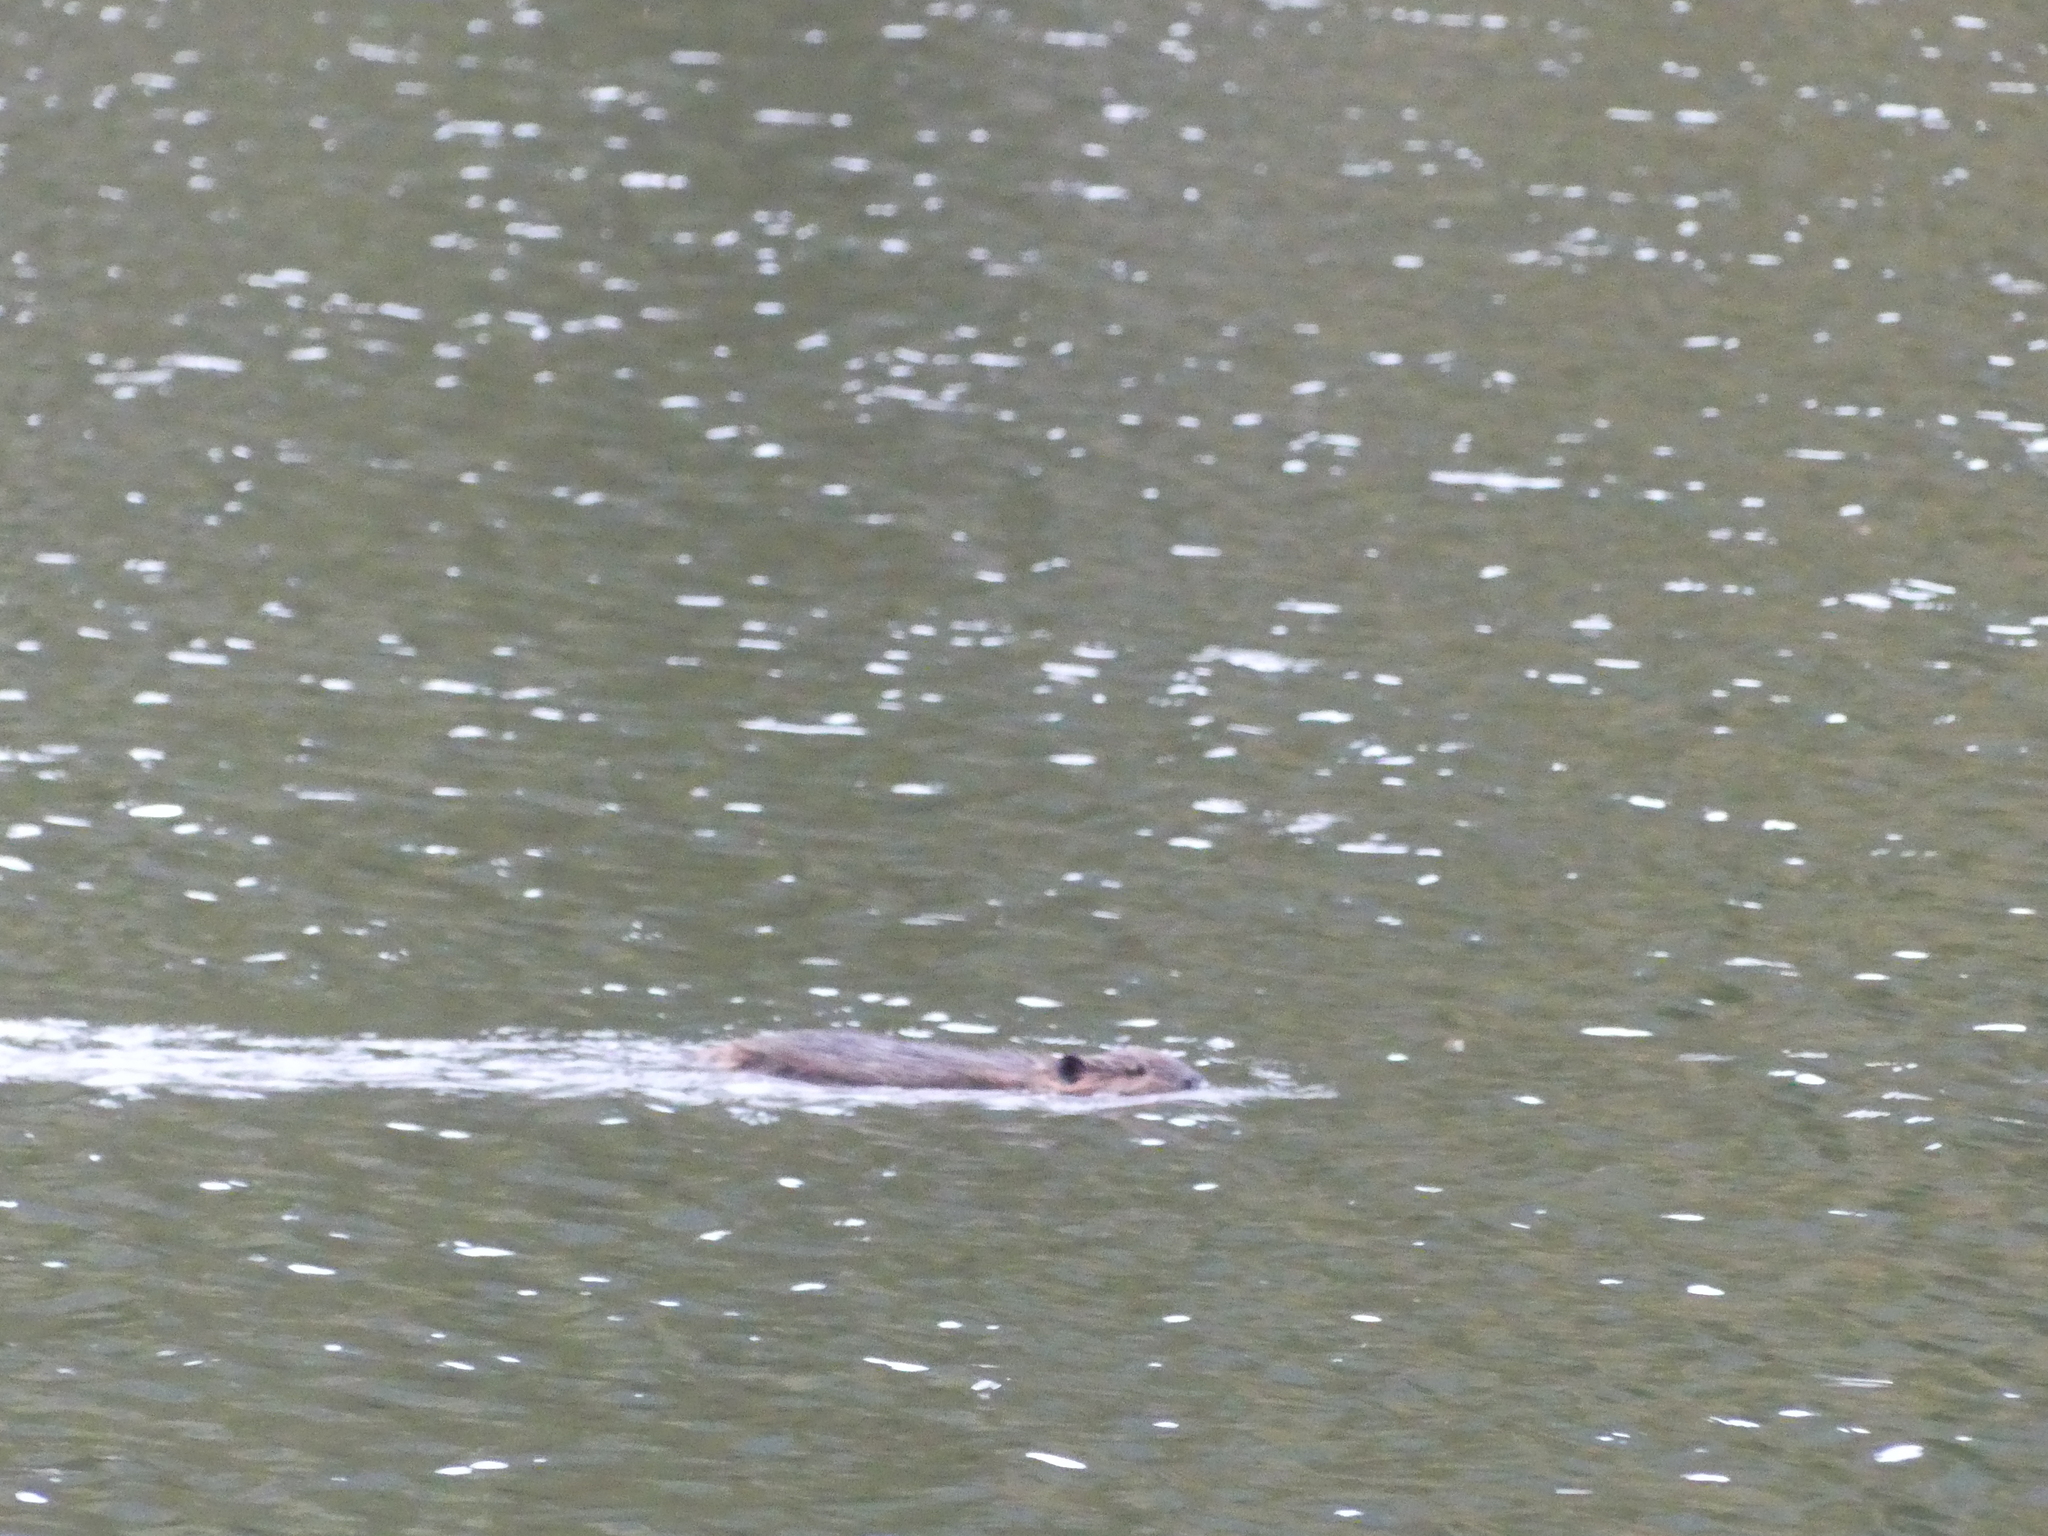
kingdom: Animalia
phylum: Chordata
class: Mammalia
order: Rodentia
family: Castoridae
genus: Castor
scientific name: Castor canadensis
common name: American beaver
